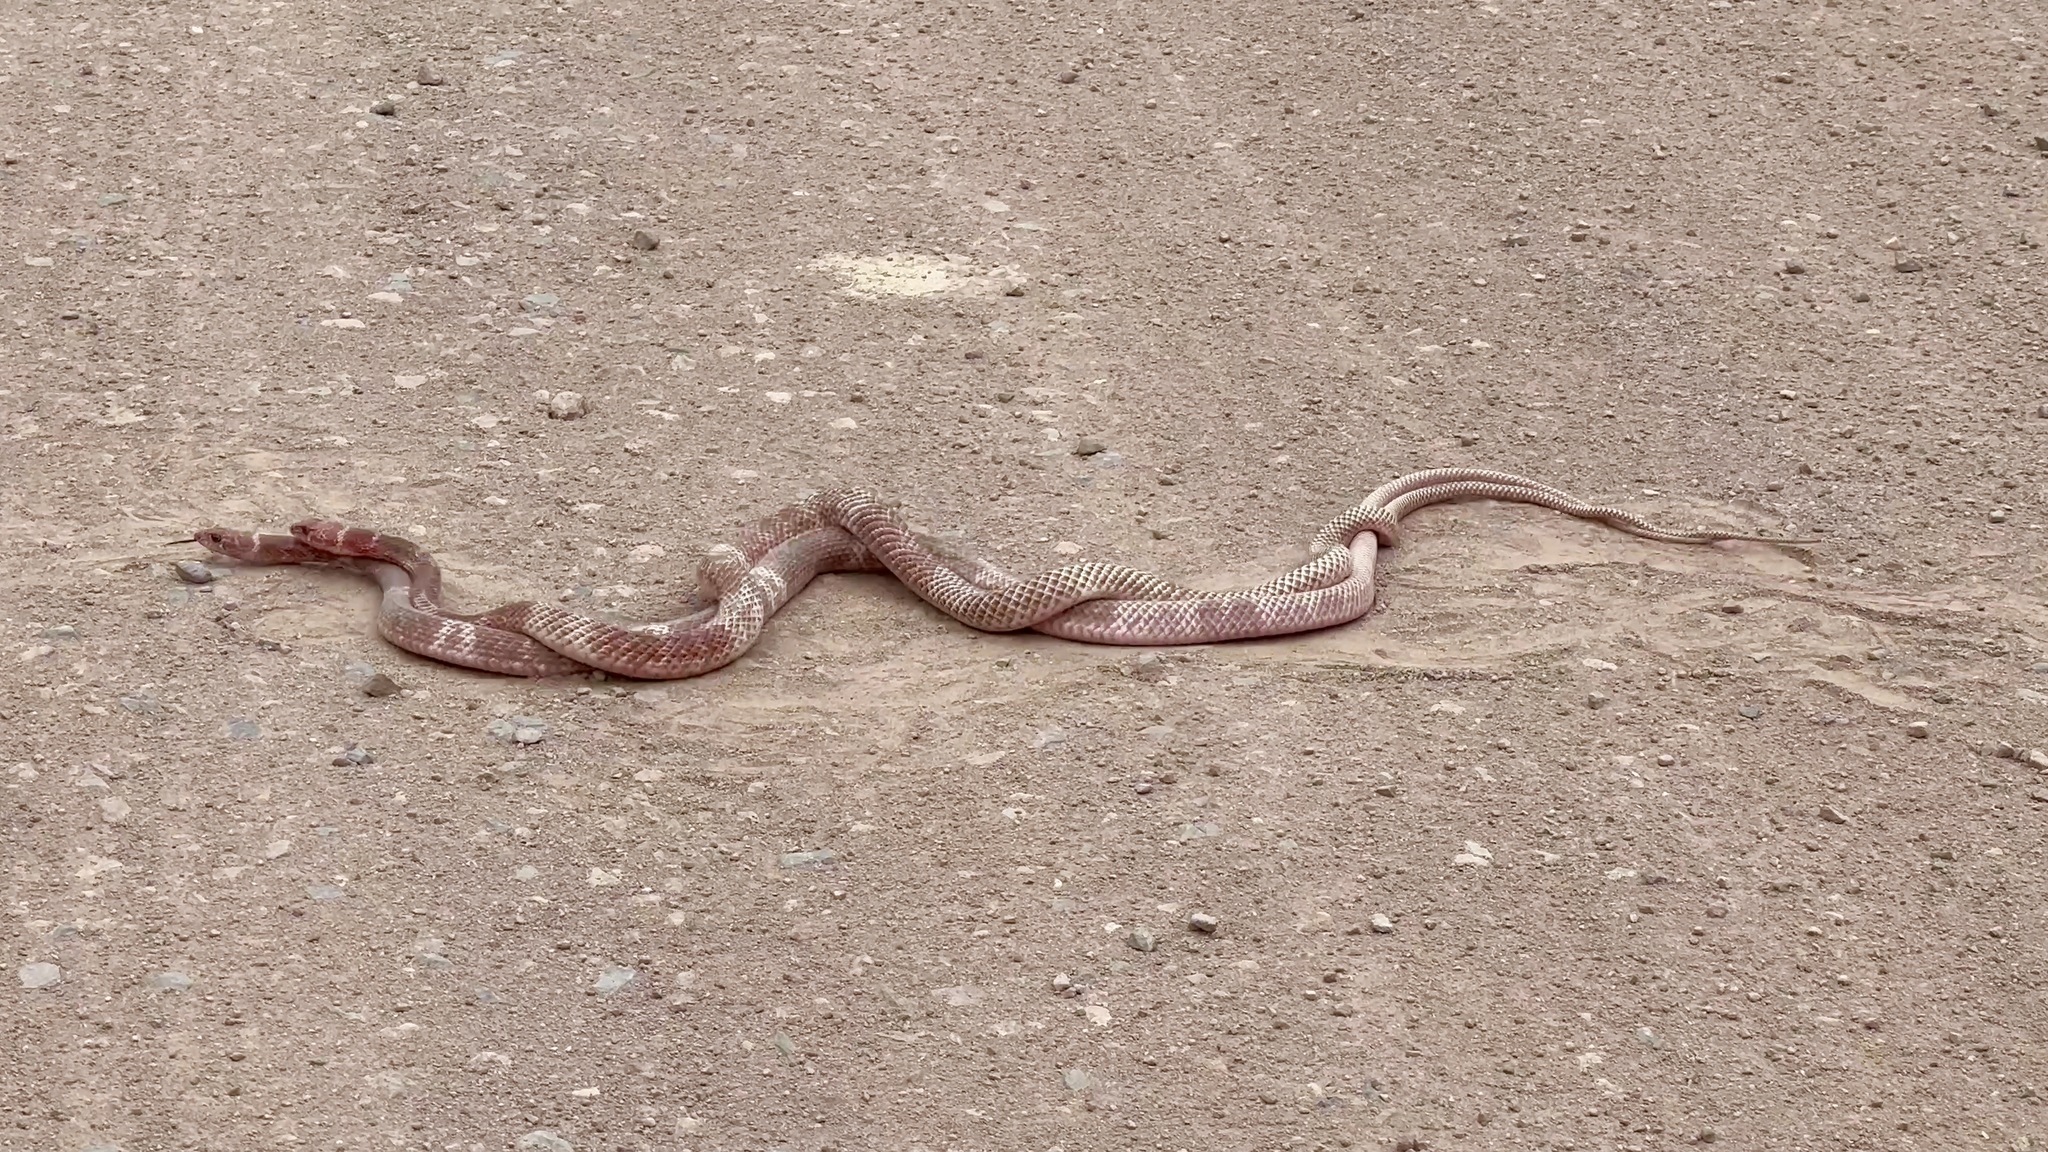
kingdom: Animalia
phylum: Chordata
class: Squamata
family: Colubridae
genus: Masticophis
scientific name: Masticophis flagellum
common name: Coachwhip
